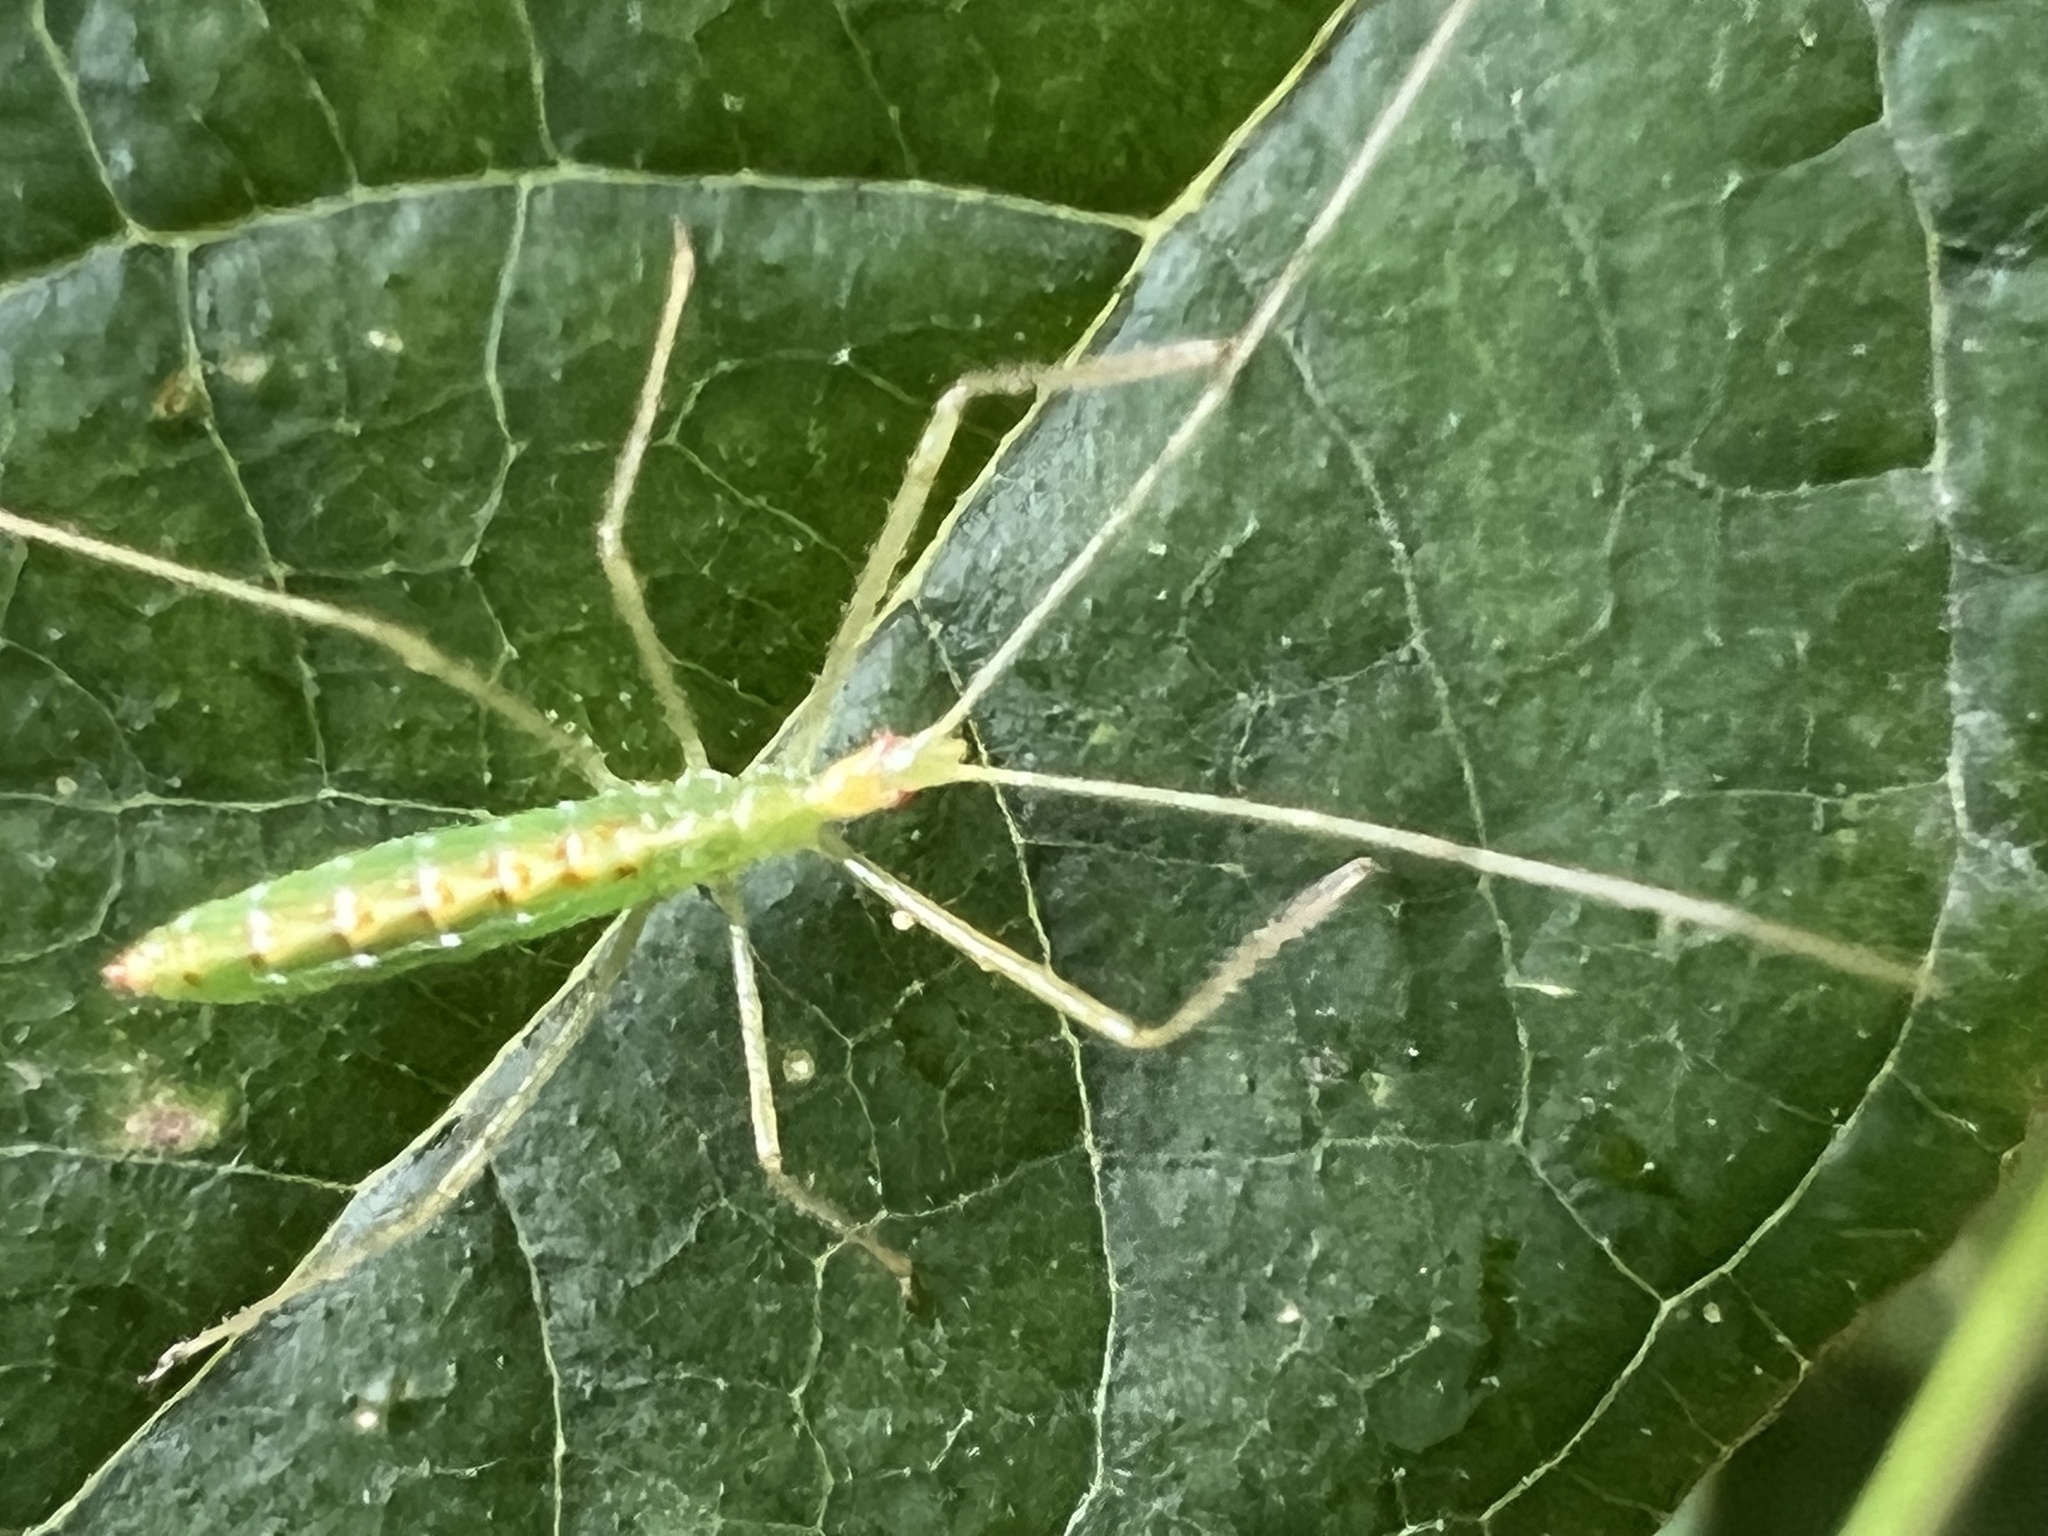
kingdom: Animalia
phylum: Arthropoda
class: Insecta
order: Hemiptera
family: Reduviidae
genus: Zelus
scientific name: Zelus luridus
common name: Pale green assassin bug
